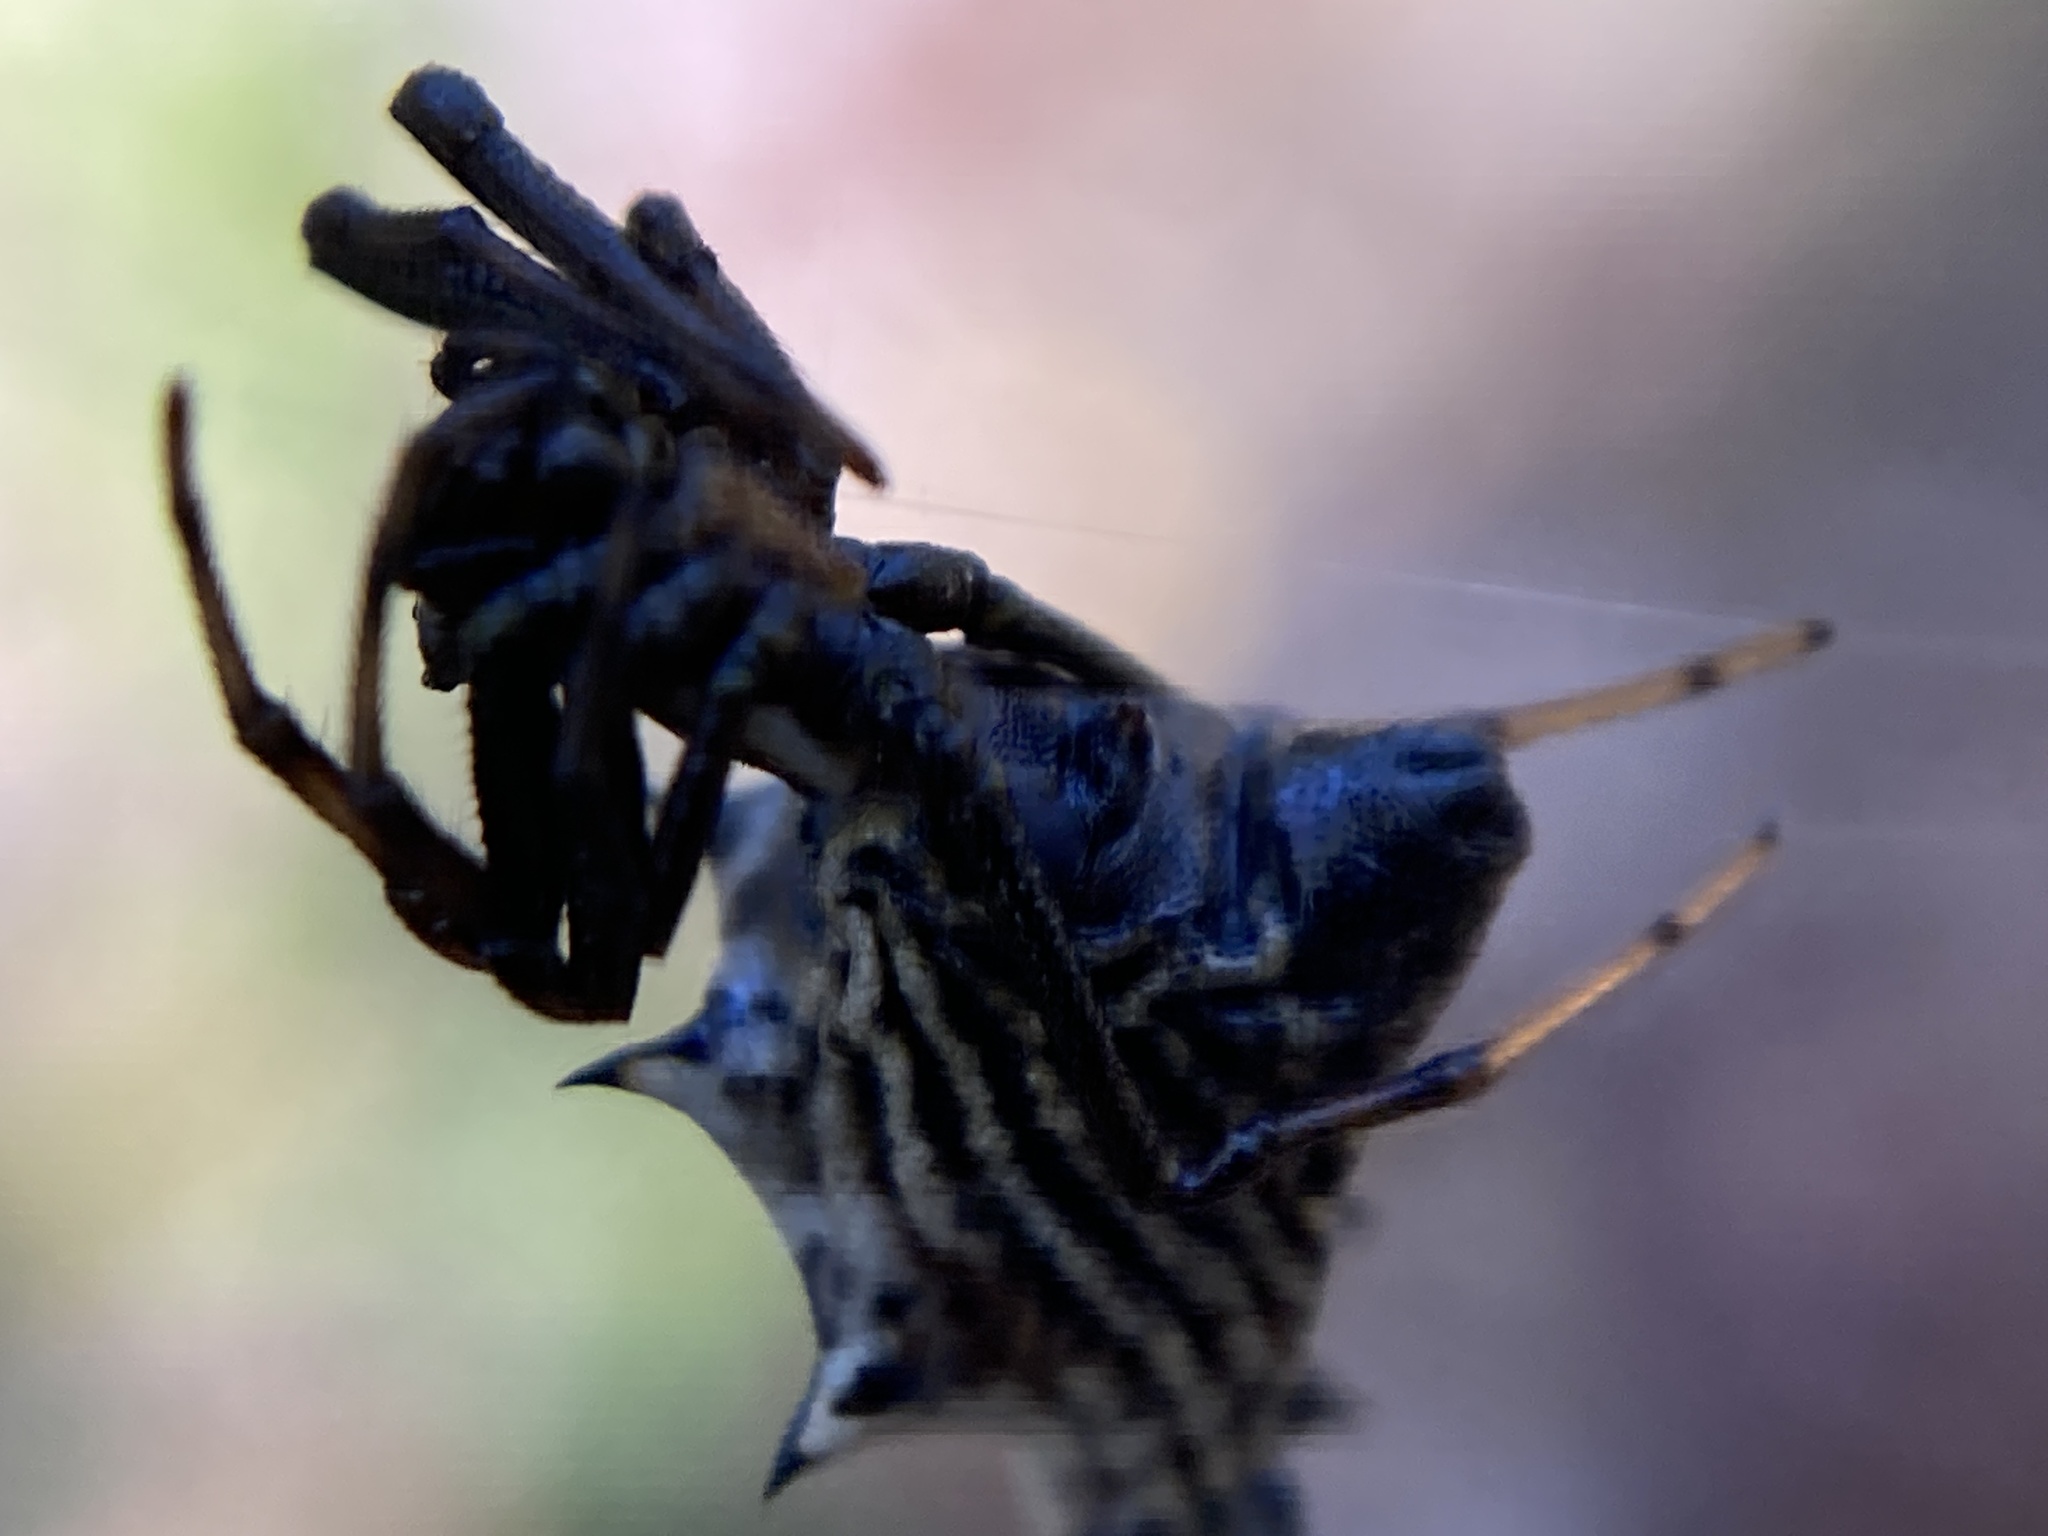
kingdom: Animalia
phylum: Arthropoda
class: Arachnida
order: Araneae
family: Araneidae
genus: Micrathena
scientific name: Micrathena gracilis
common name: Orb weavers
